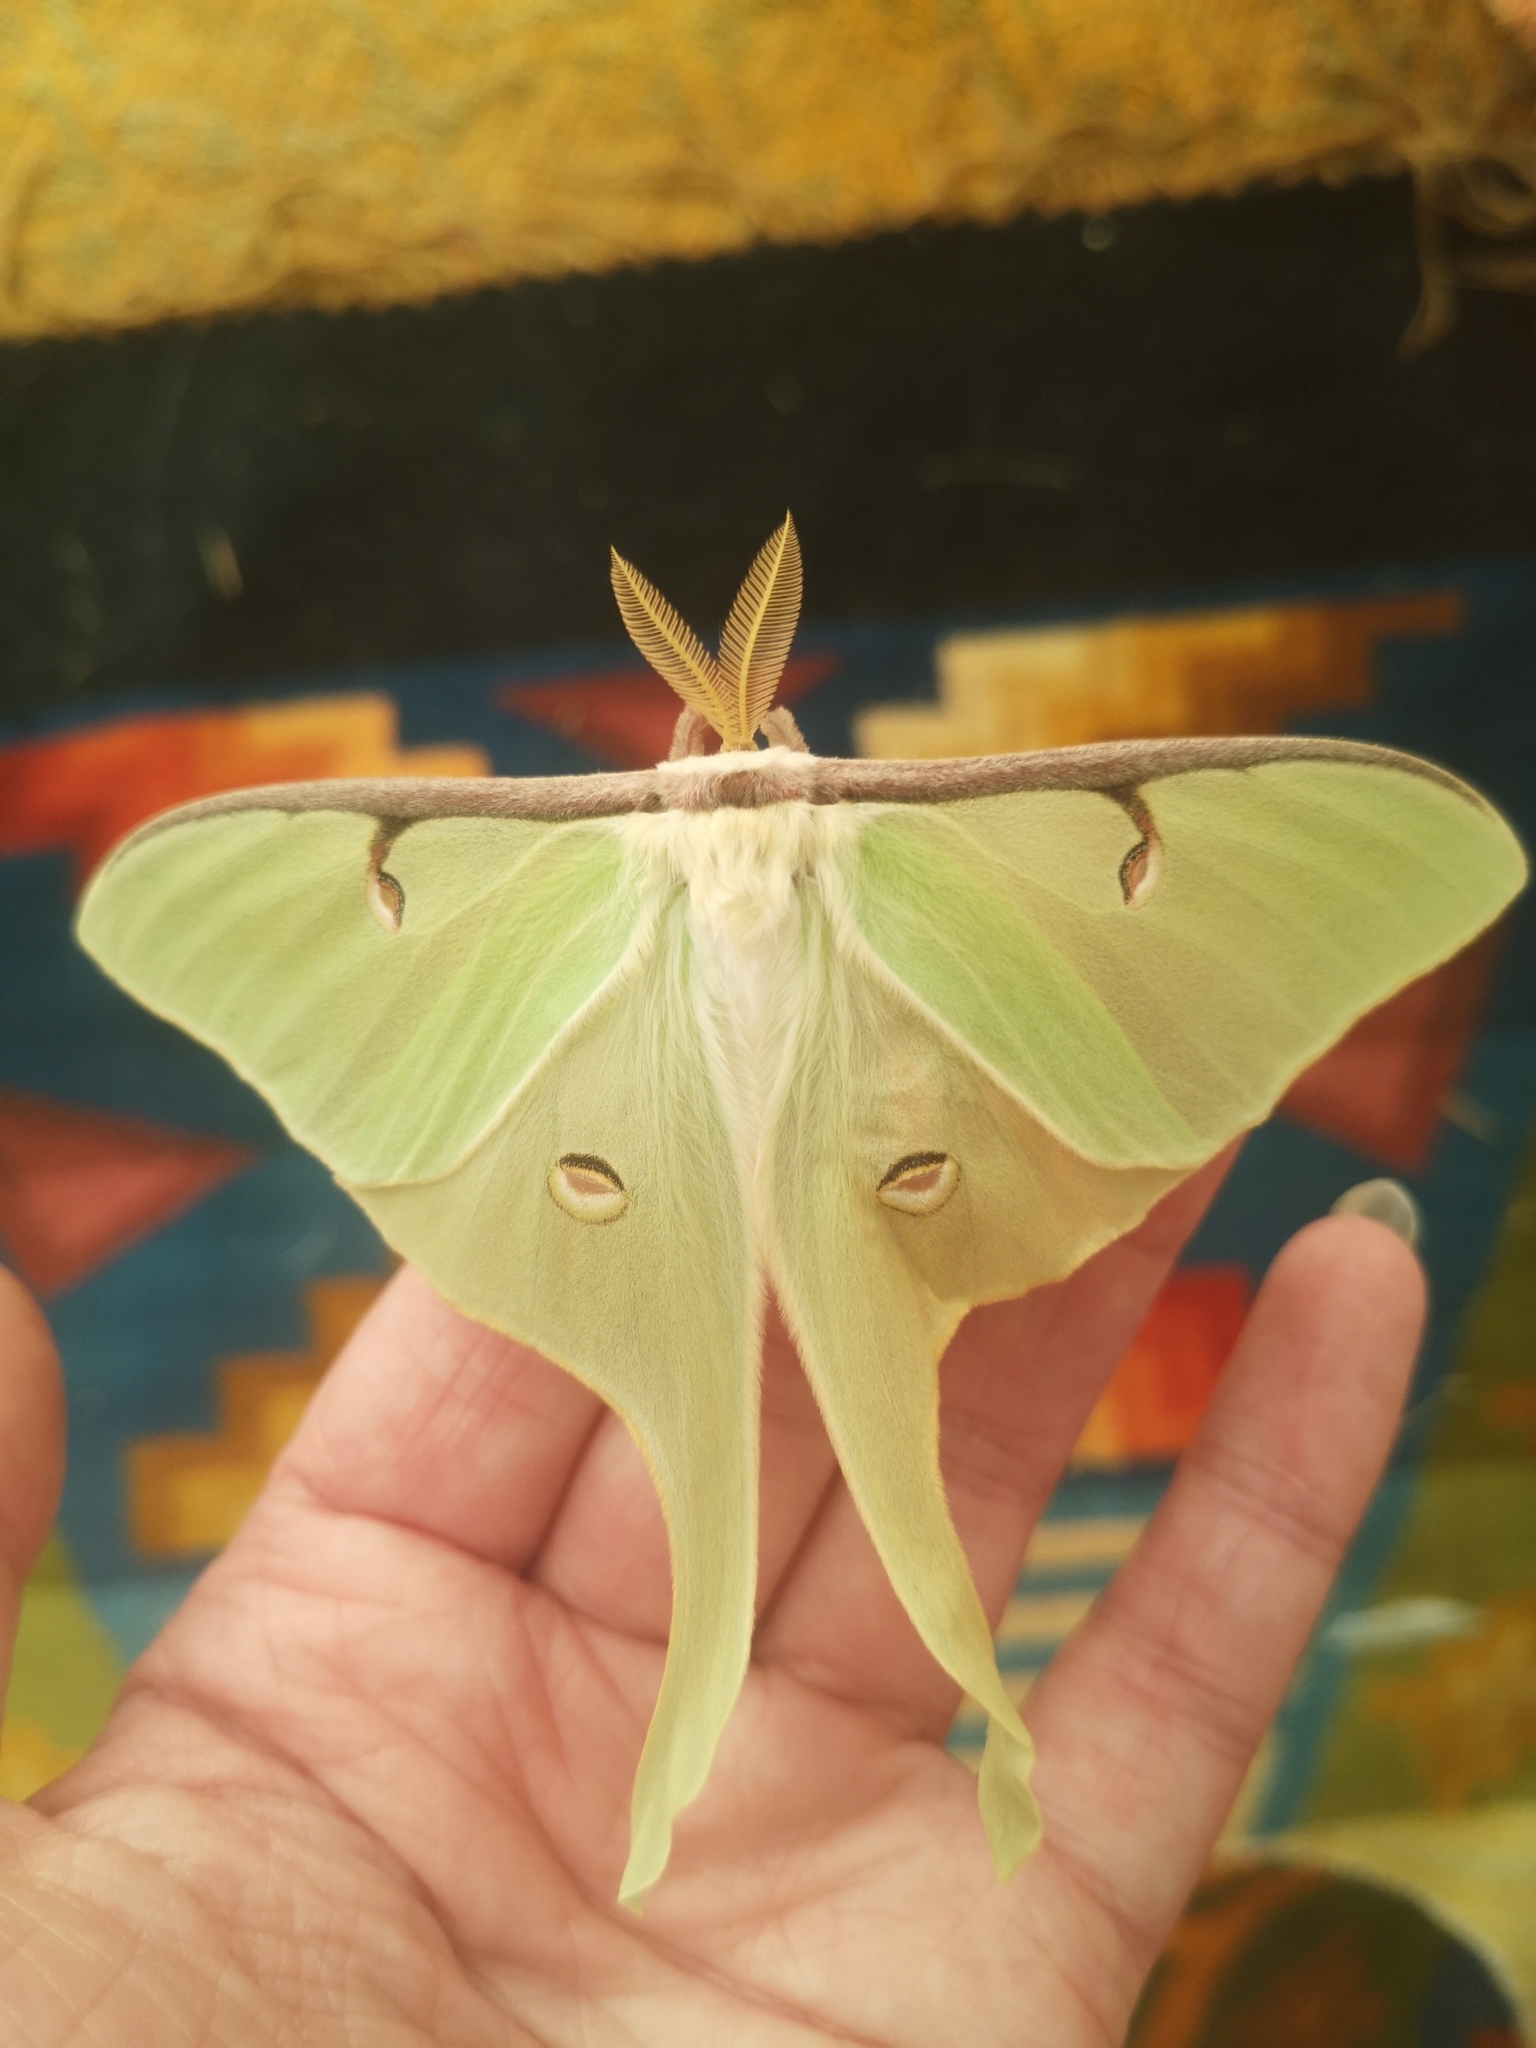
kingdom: Animalia
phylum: Arthropoda
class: Insecta
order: Lepidoptera
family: Saturniidae
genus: Actias
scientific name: Actias luna
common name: Luna moth
